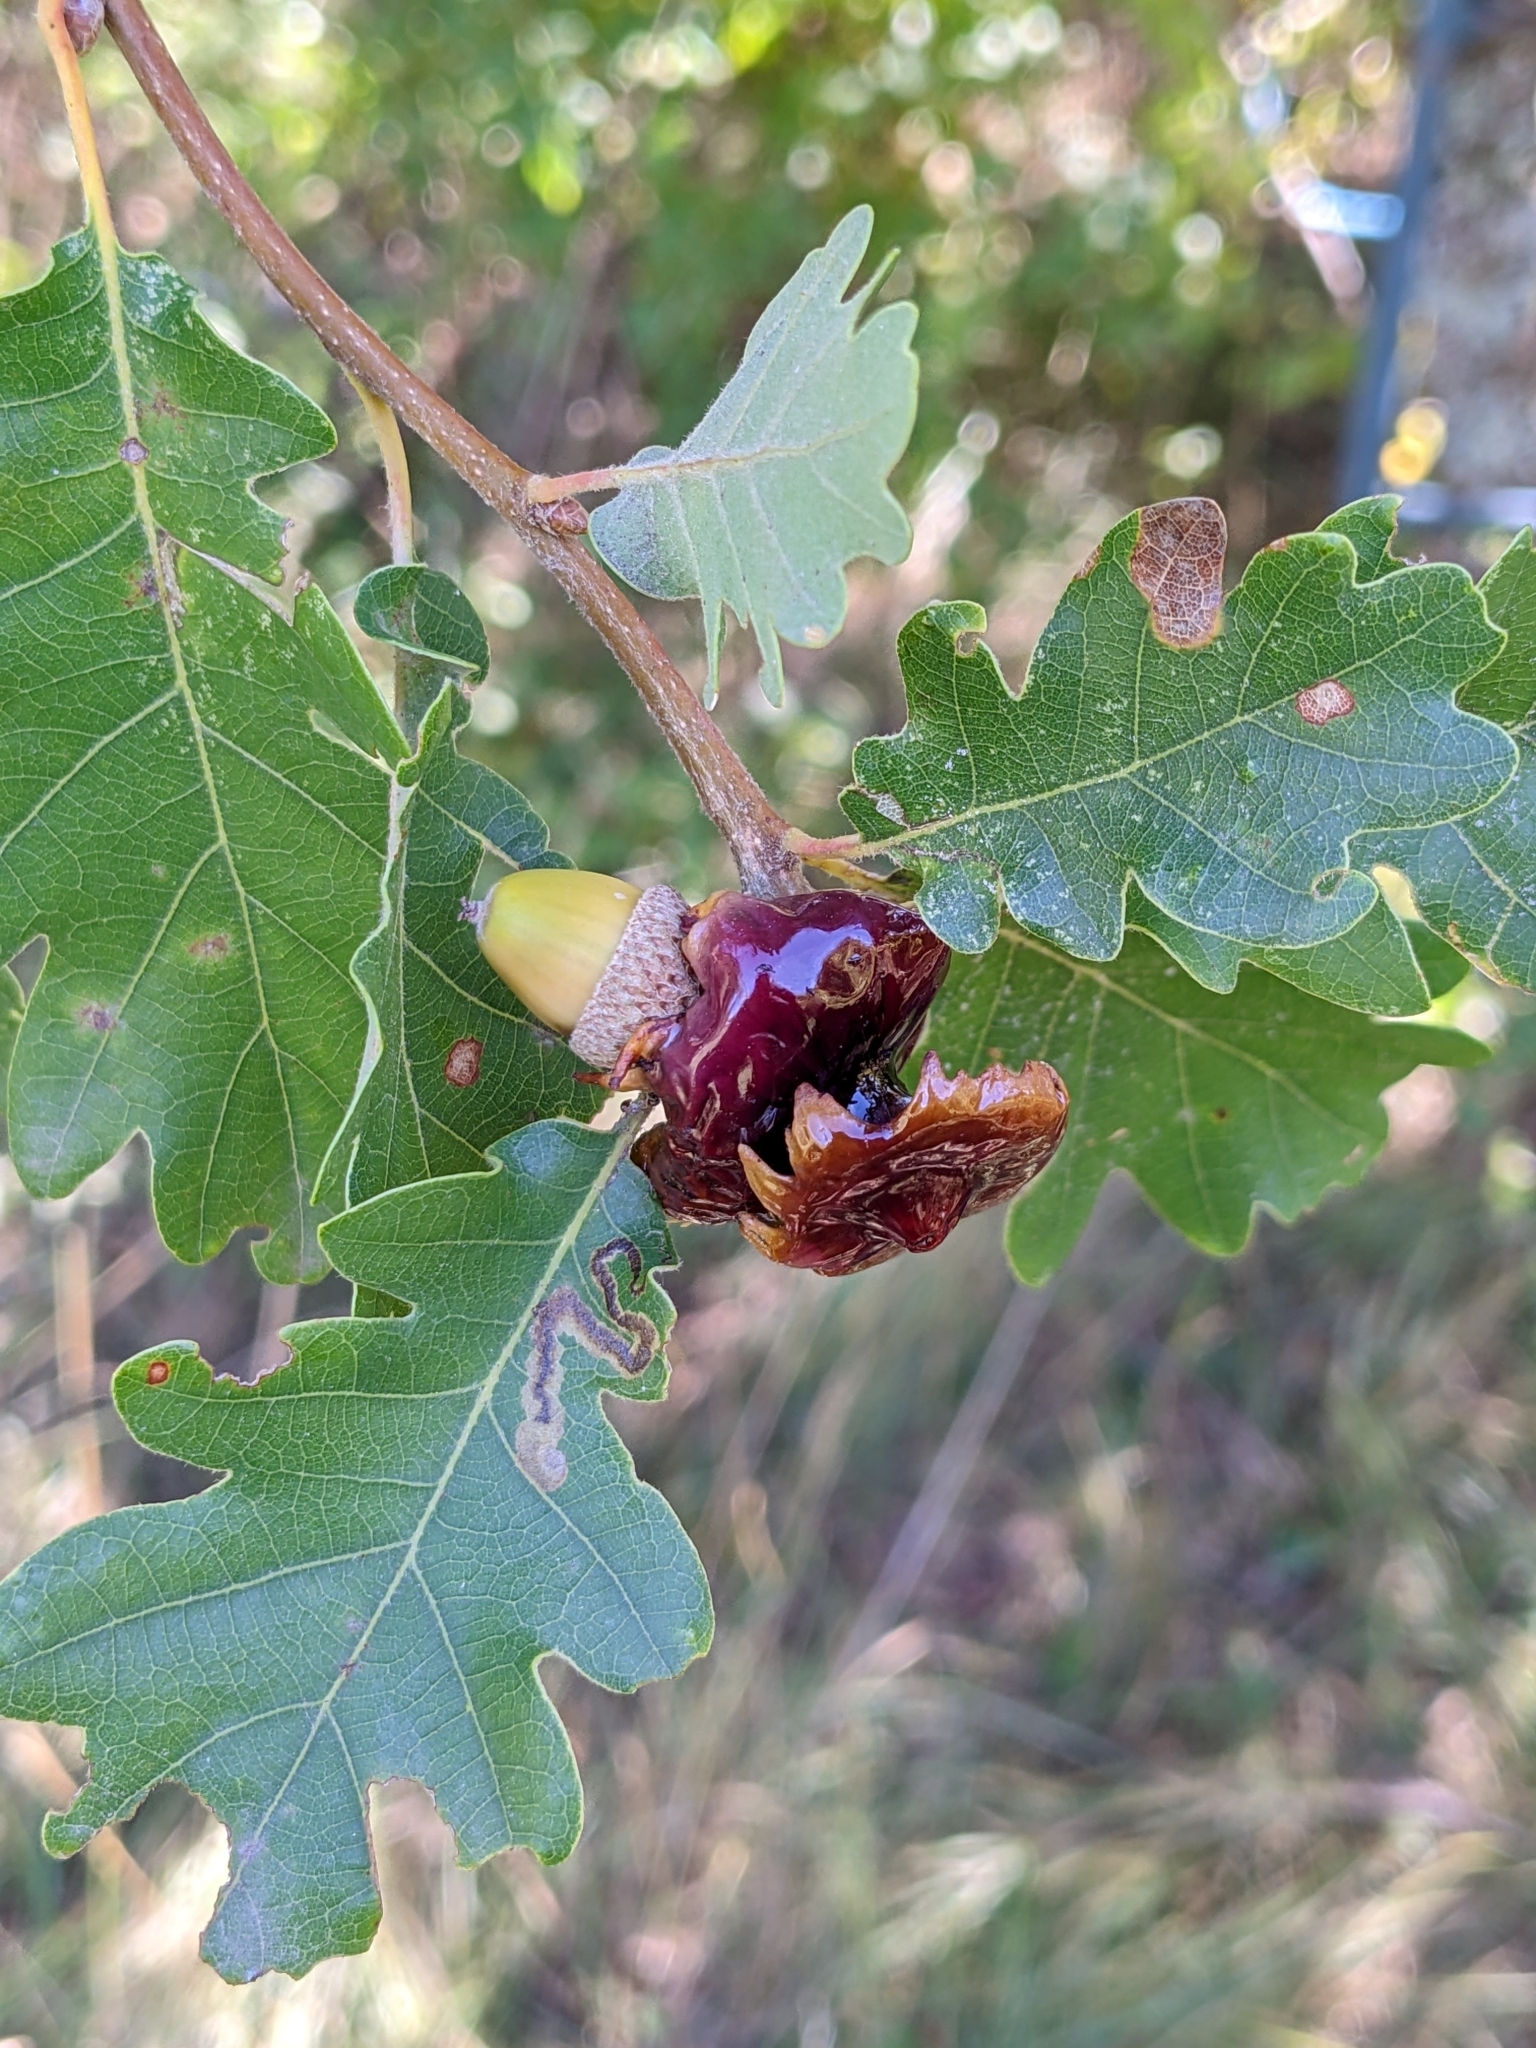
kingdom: Animalia
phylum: Arthropoda
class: Insecta
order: Hymenoptera
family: Cynipidae
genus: Andricus
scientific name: Andricus dentimitratus
